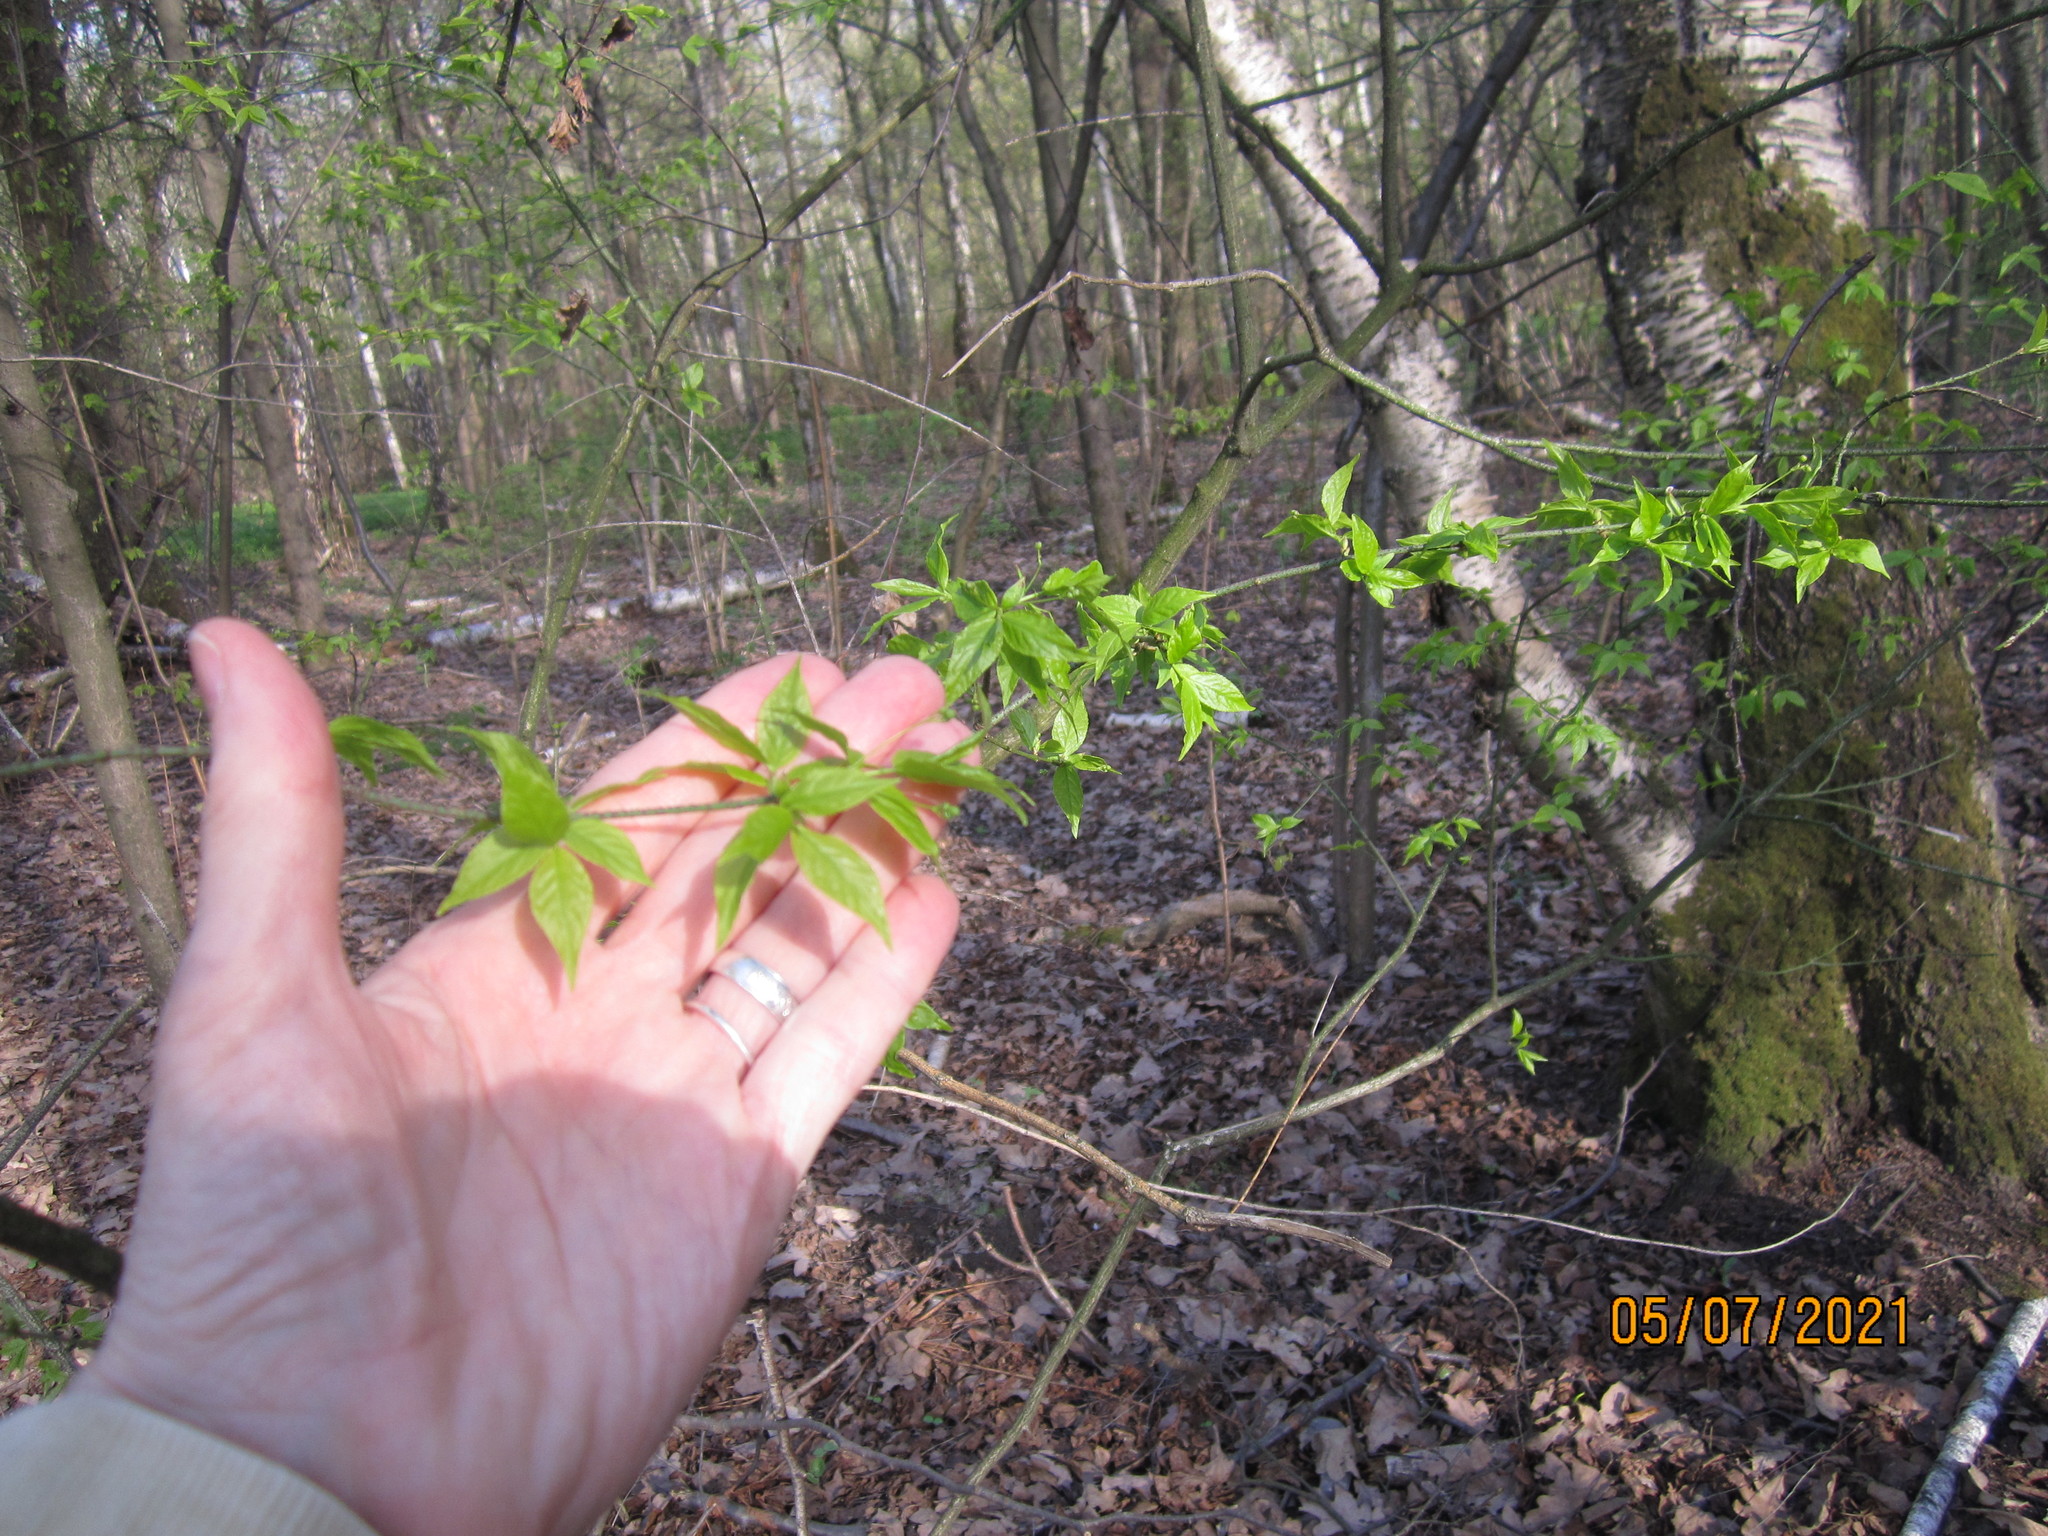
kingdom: Plantae
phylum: Tracheophyta
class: Magnoliopsida
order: Celastrales
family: Celastraceae
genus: Euonymus
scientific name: Euonymus verrucosus
